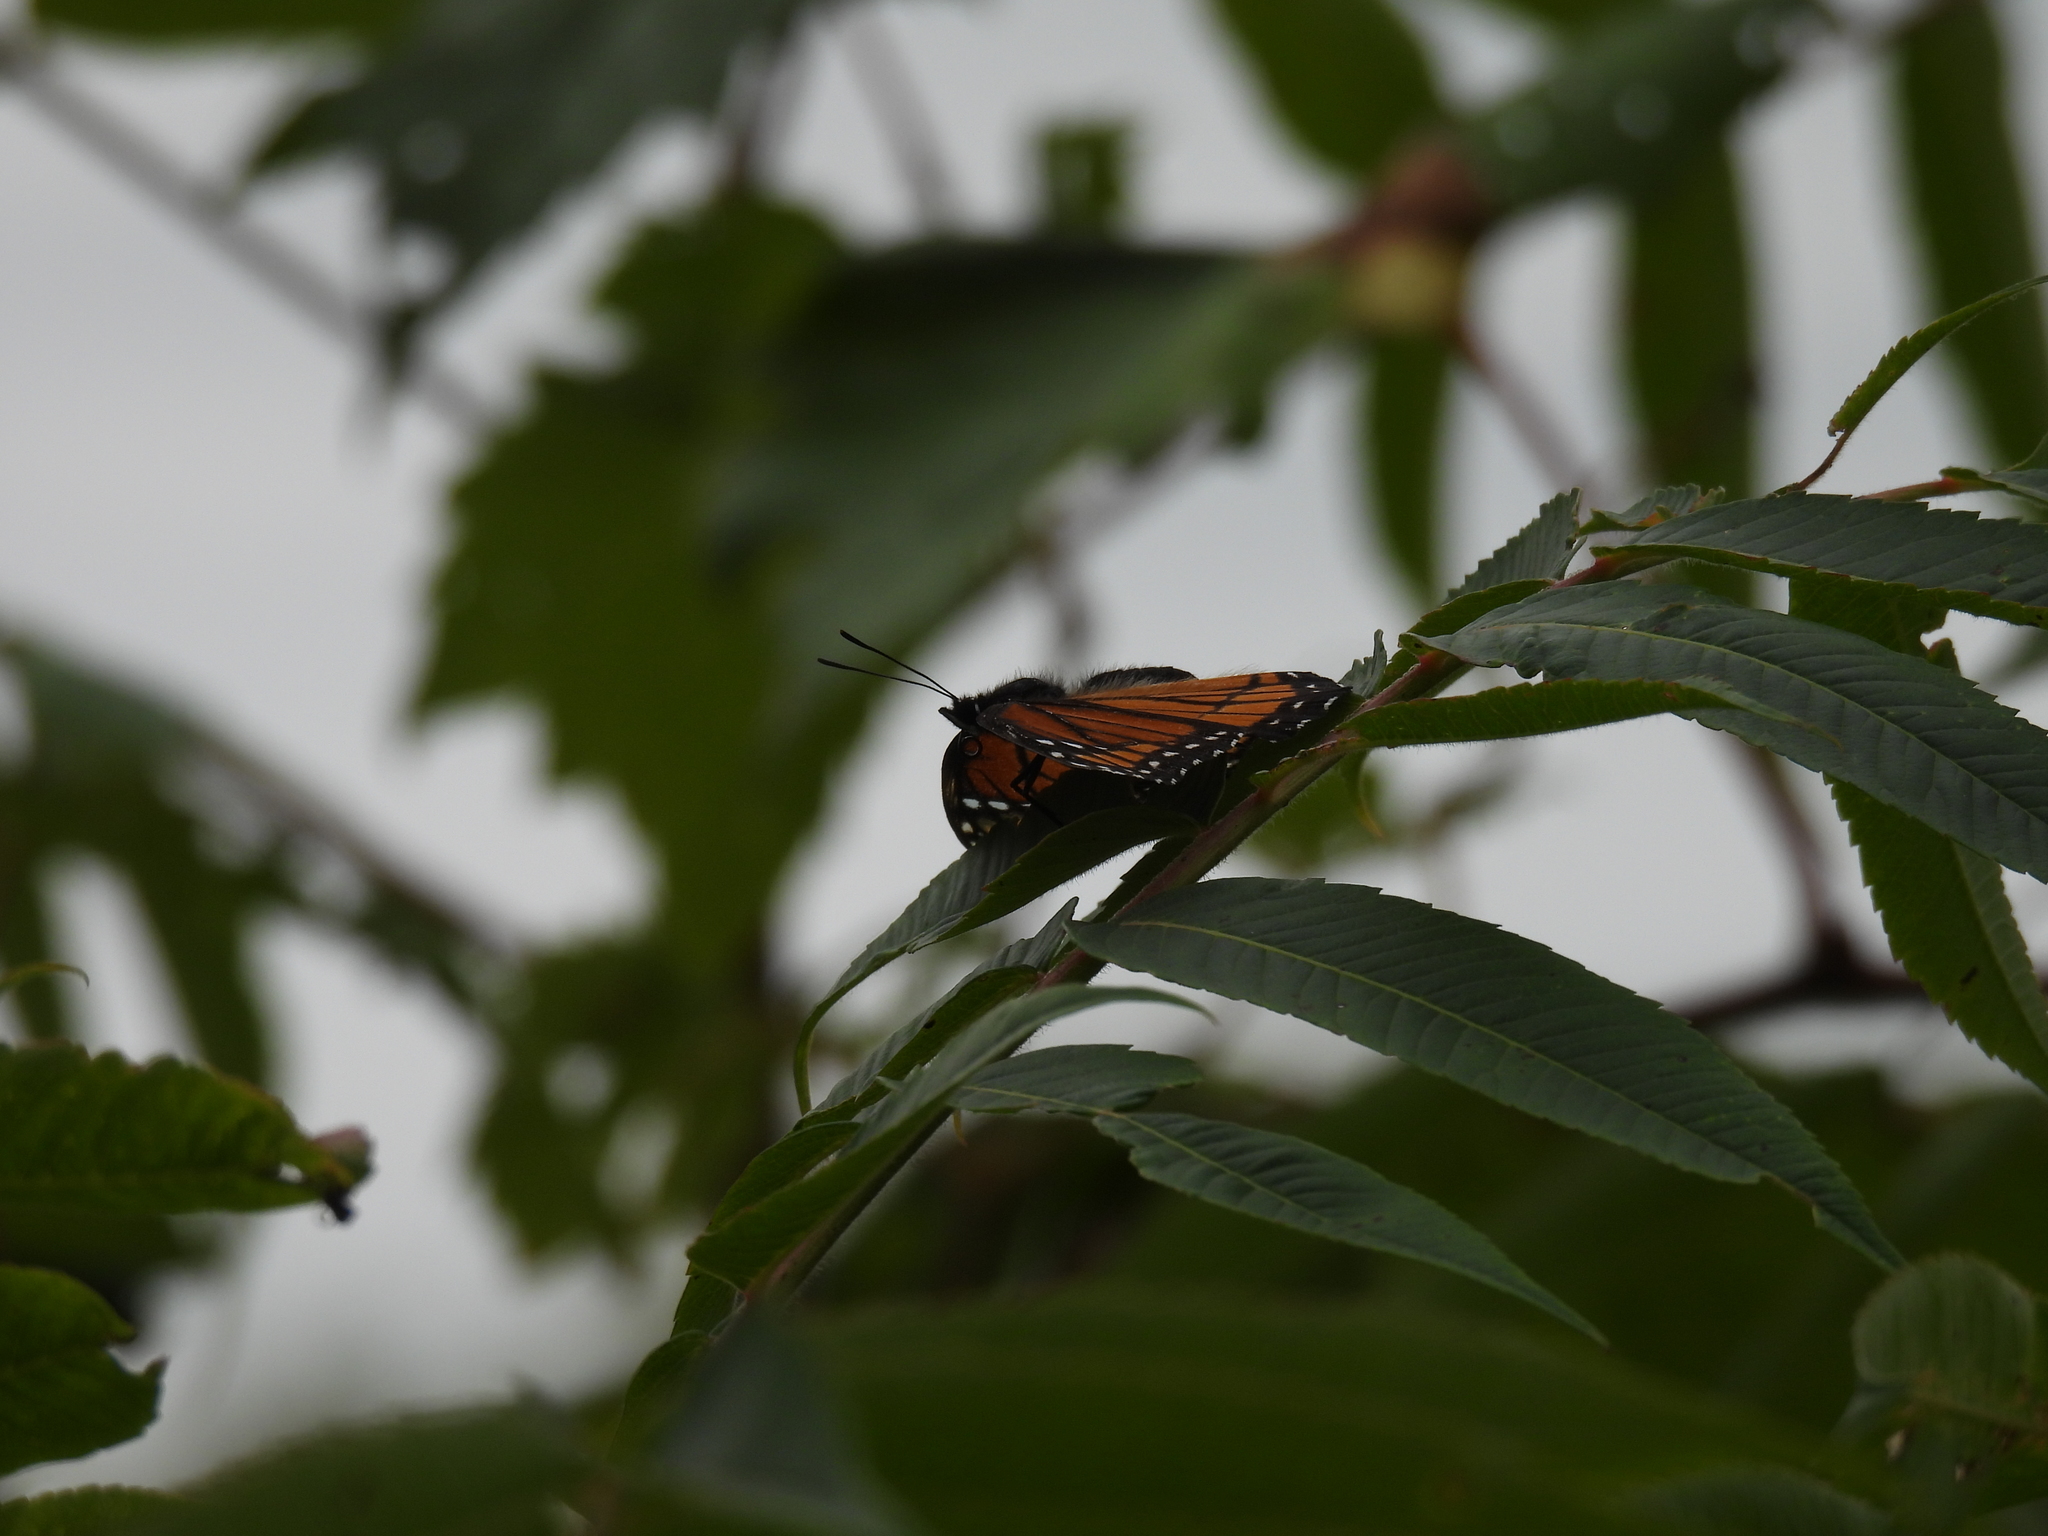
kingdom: Animalia
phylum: Arthropoda
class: Insecta
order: Lepidoptera
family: Nymphalidae
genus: Limenitis
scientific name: Limenitis archippus
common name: Viceroy
